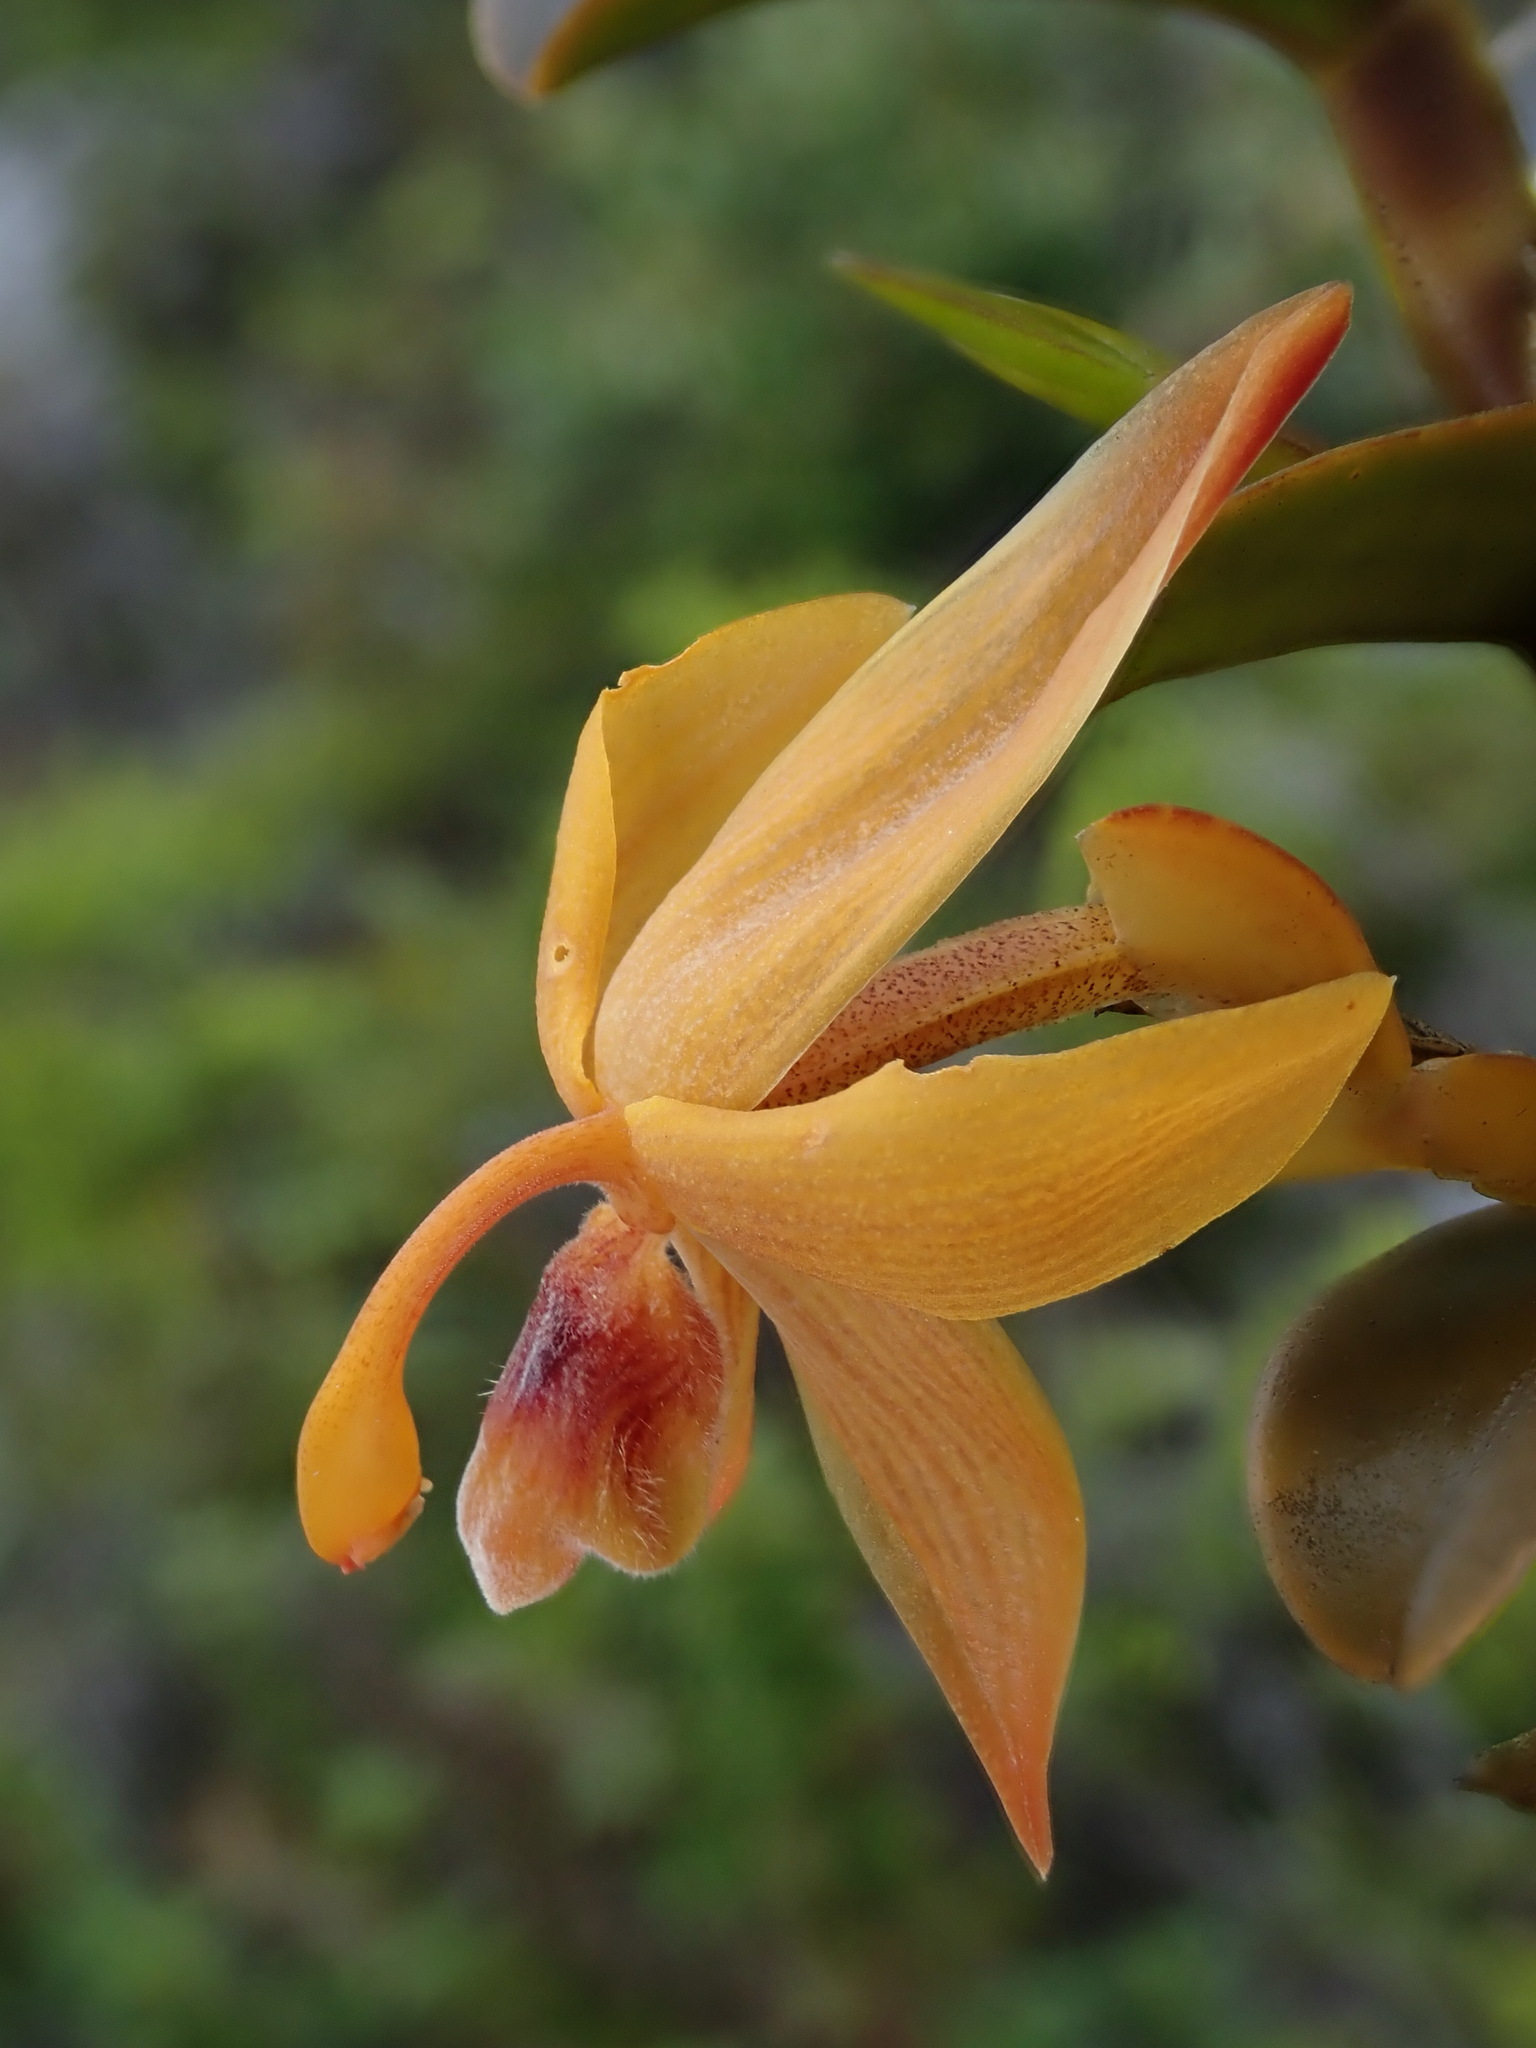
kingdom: Plantae
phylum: Tracheophyta
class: Liliopsida
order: Asparagales
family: Orchidaceae
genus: Maxillaria
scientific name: Maxillaria frontinoensis
